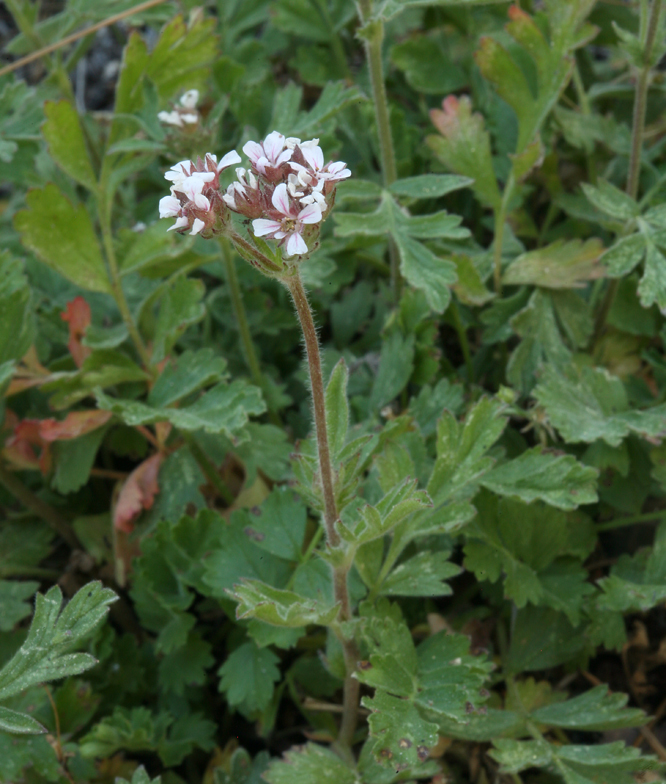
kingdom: Plantae
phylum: Tracheophyta
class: Magnoliopsida
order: Rosales
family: Rosaceae
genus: Potentilla
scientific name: Potentilla douglasii
